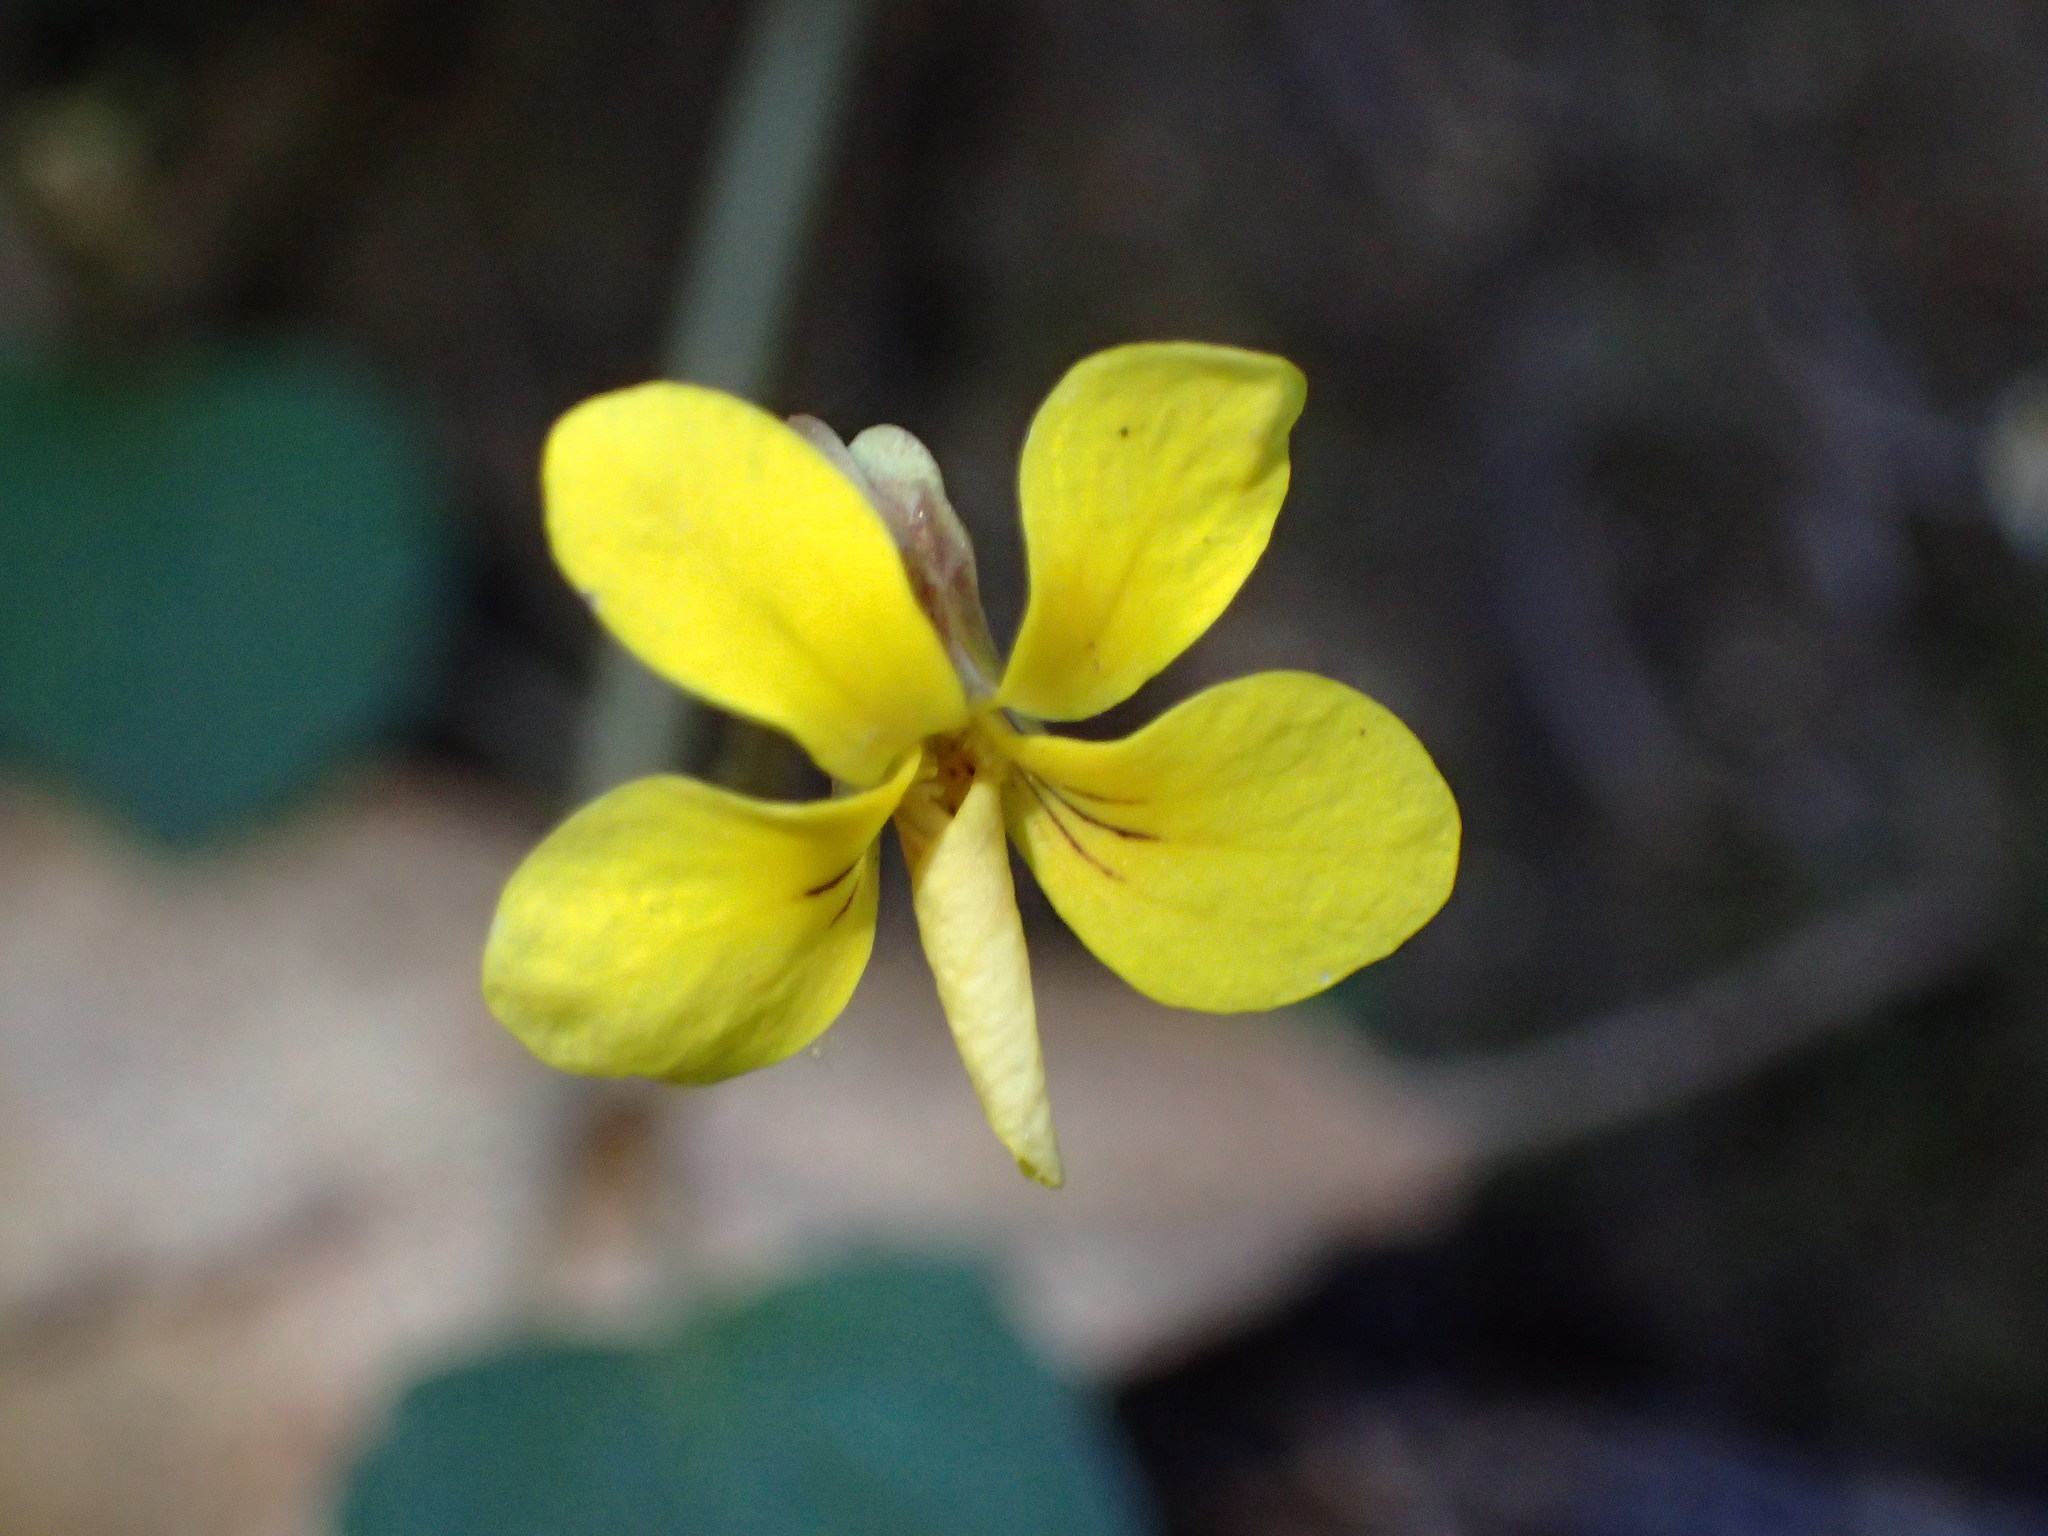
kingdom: Plantae
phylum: Tracheophyta
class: Magnoliopsida
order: Malpighiales
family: Violaceae
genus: Viola
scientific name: Viola sempervirens
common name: Evergreen violet
